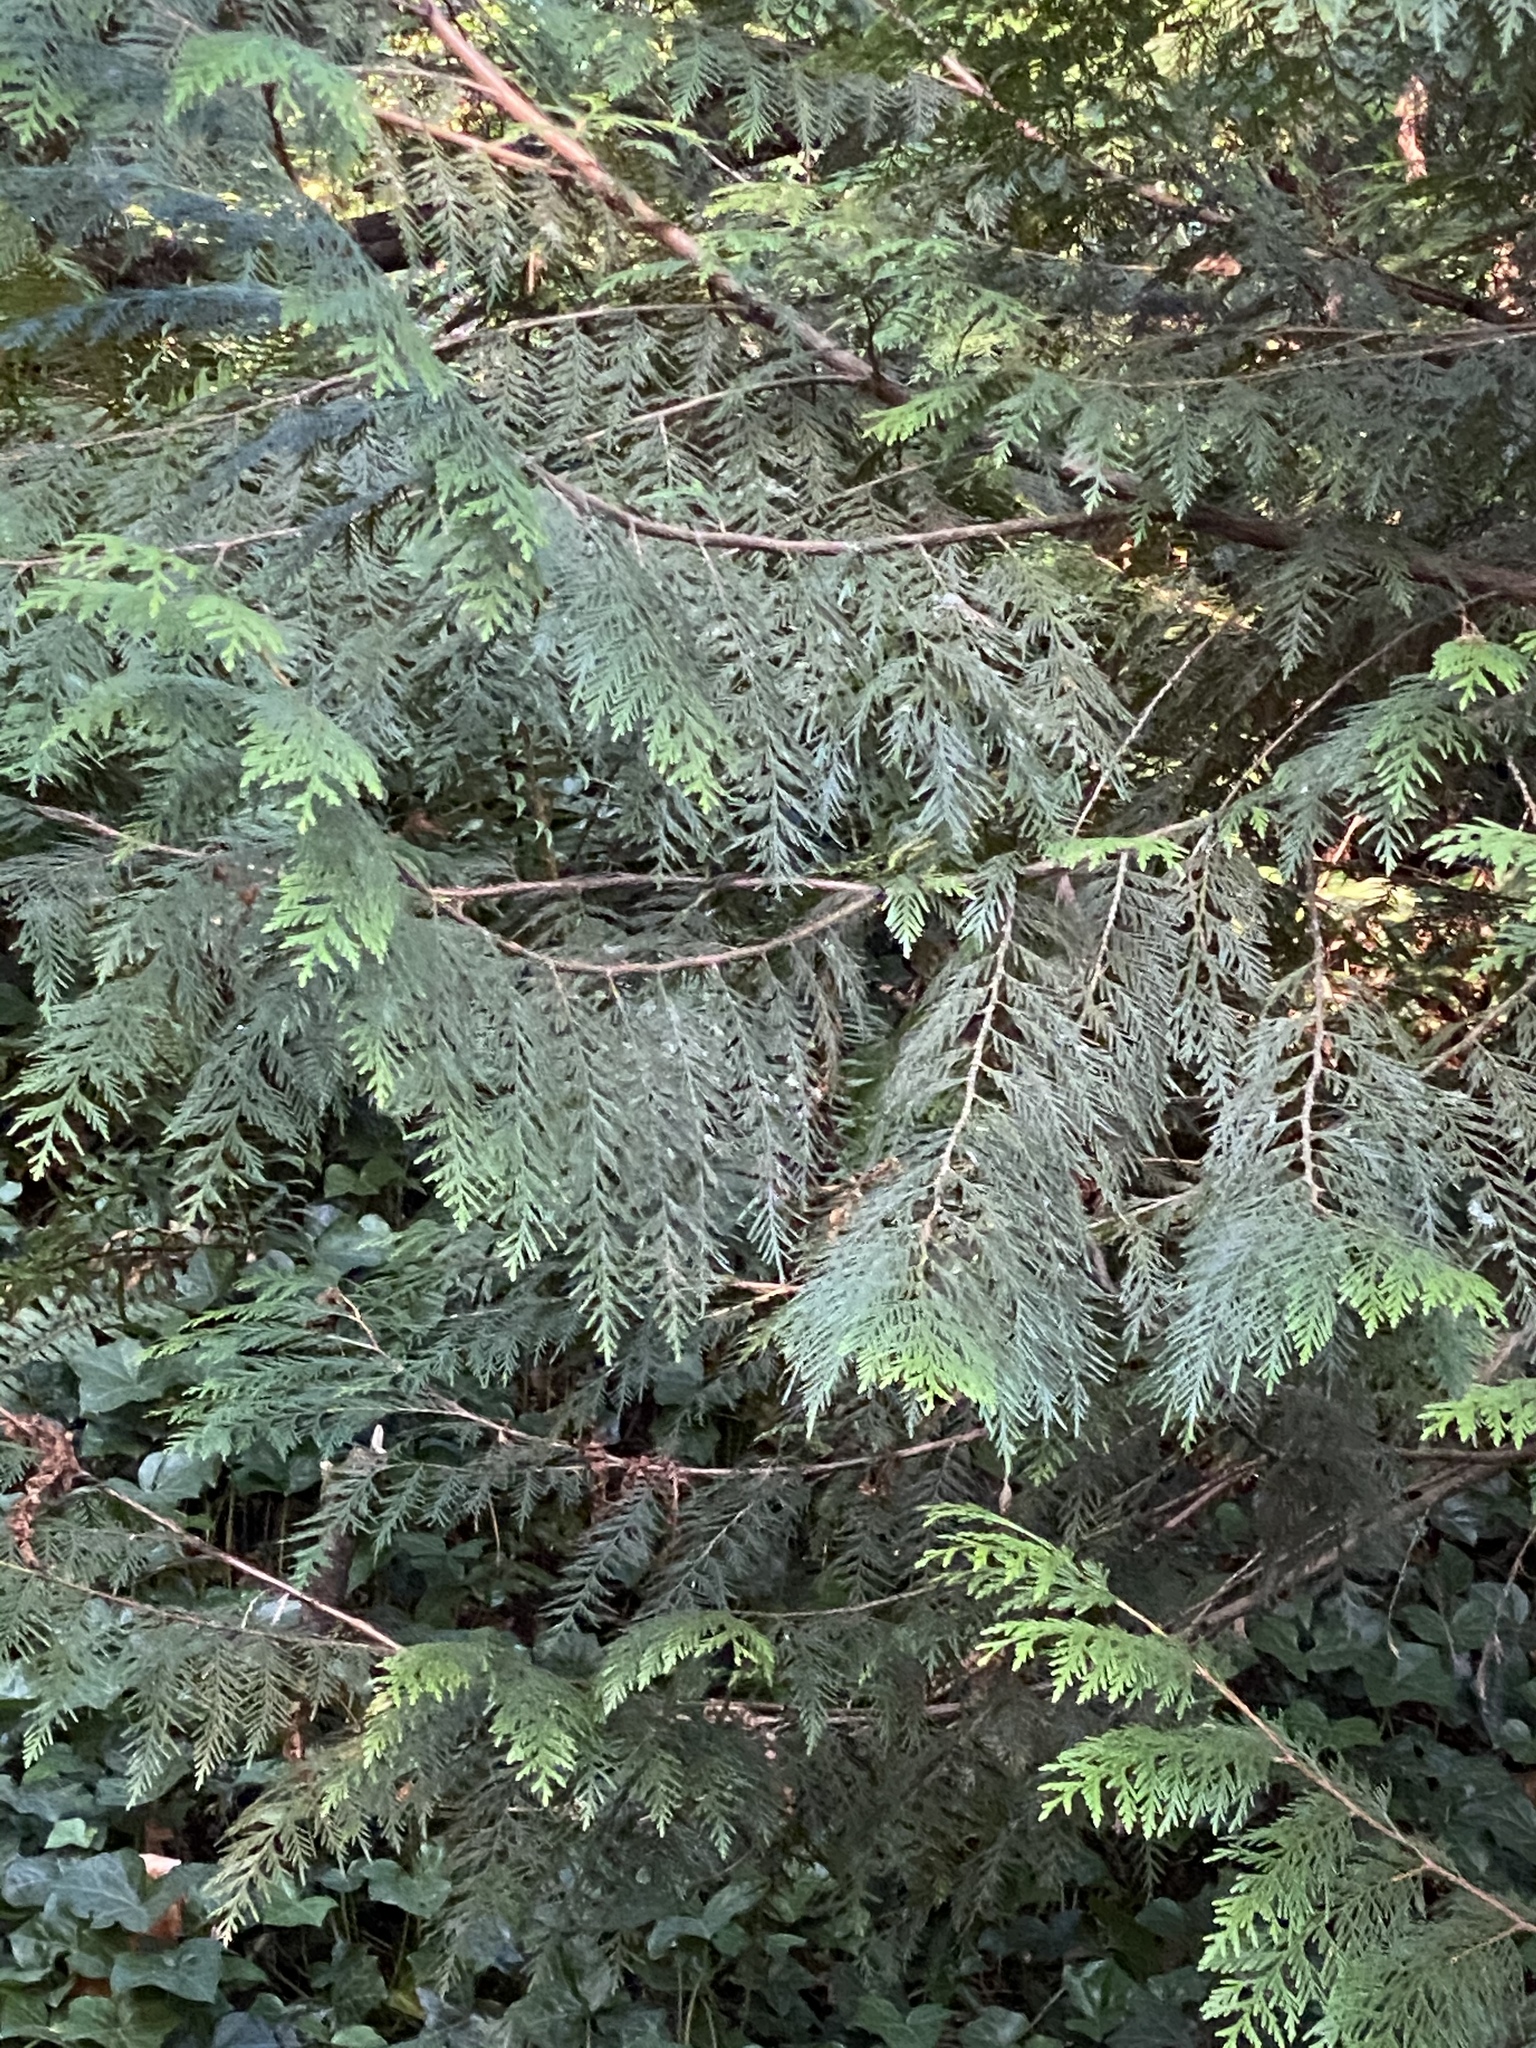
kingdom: Plantae
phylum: Tracheophyta
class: Pinopsida
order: Pinales
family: Cupressaceae
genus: Thuja
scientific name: Thuja plicata
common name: Western red-cedar
